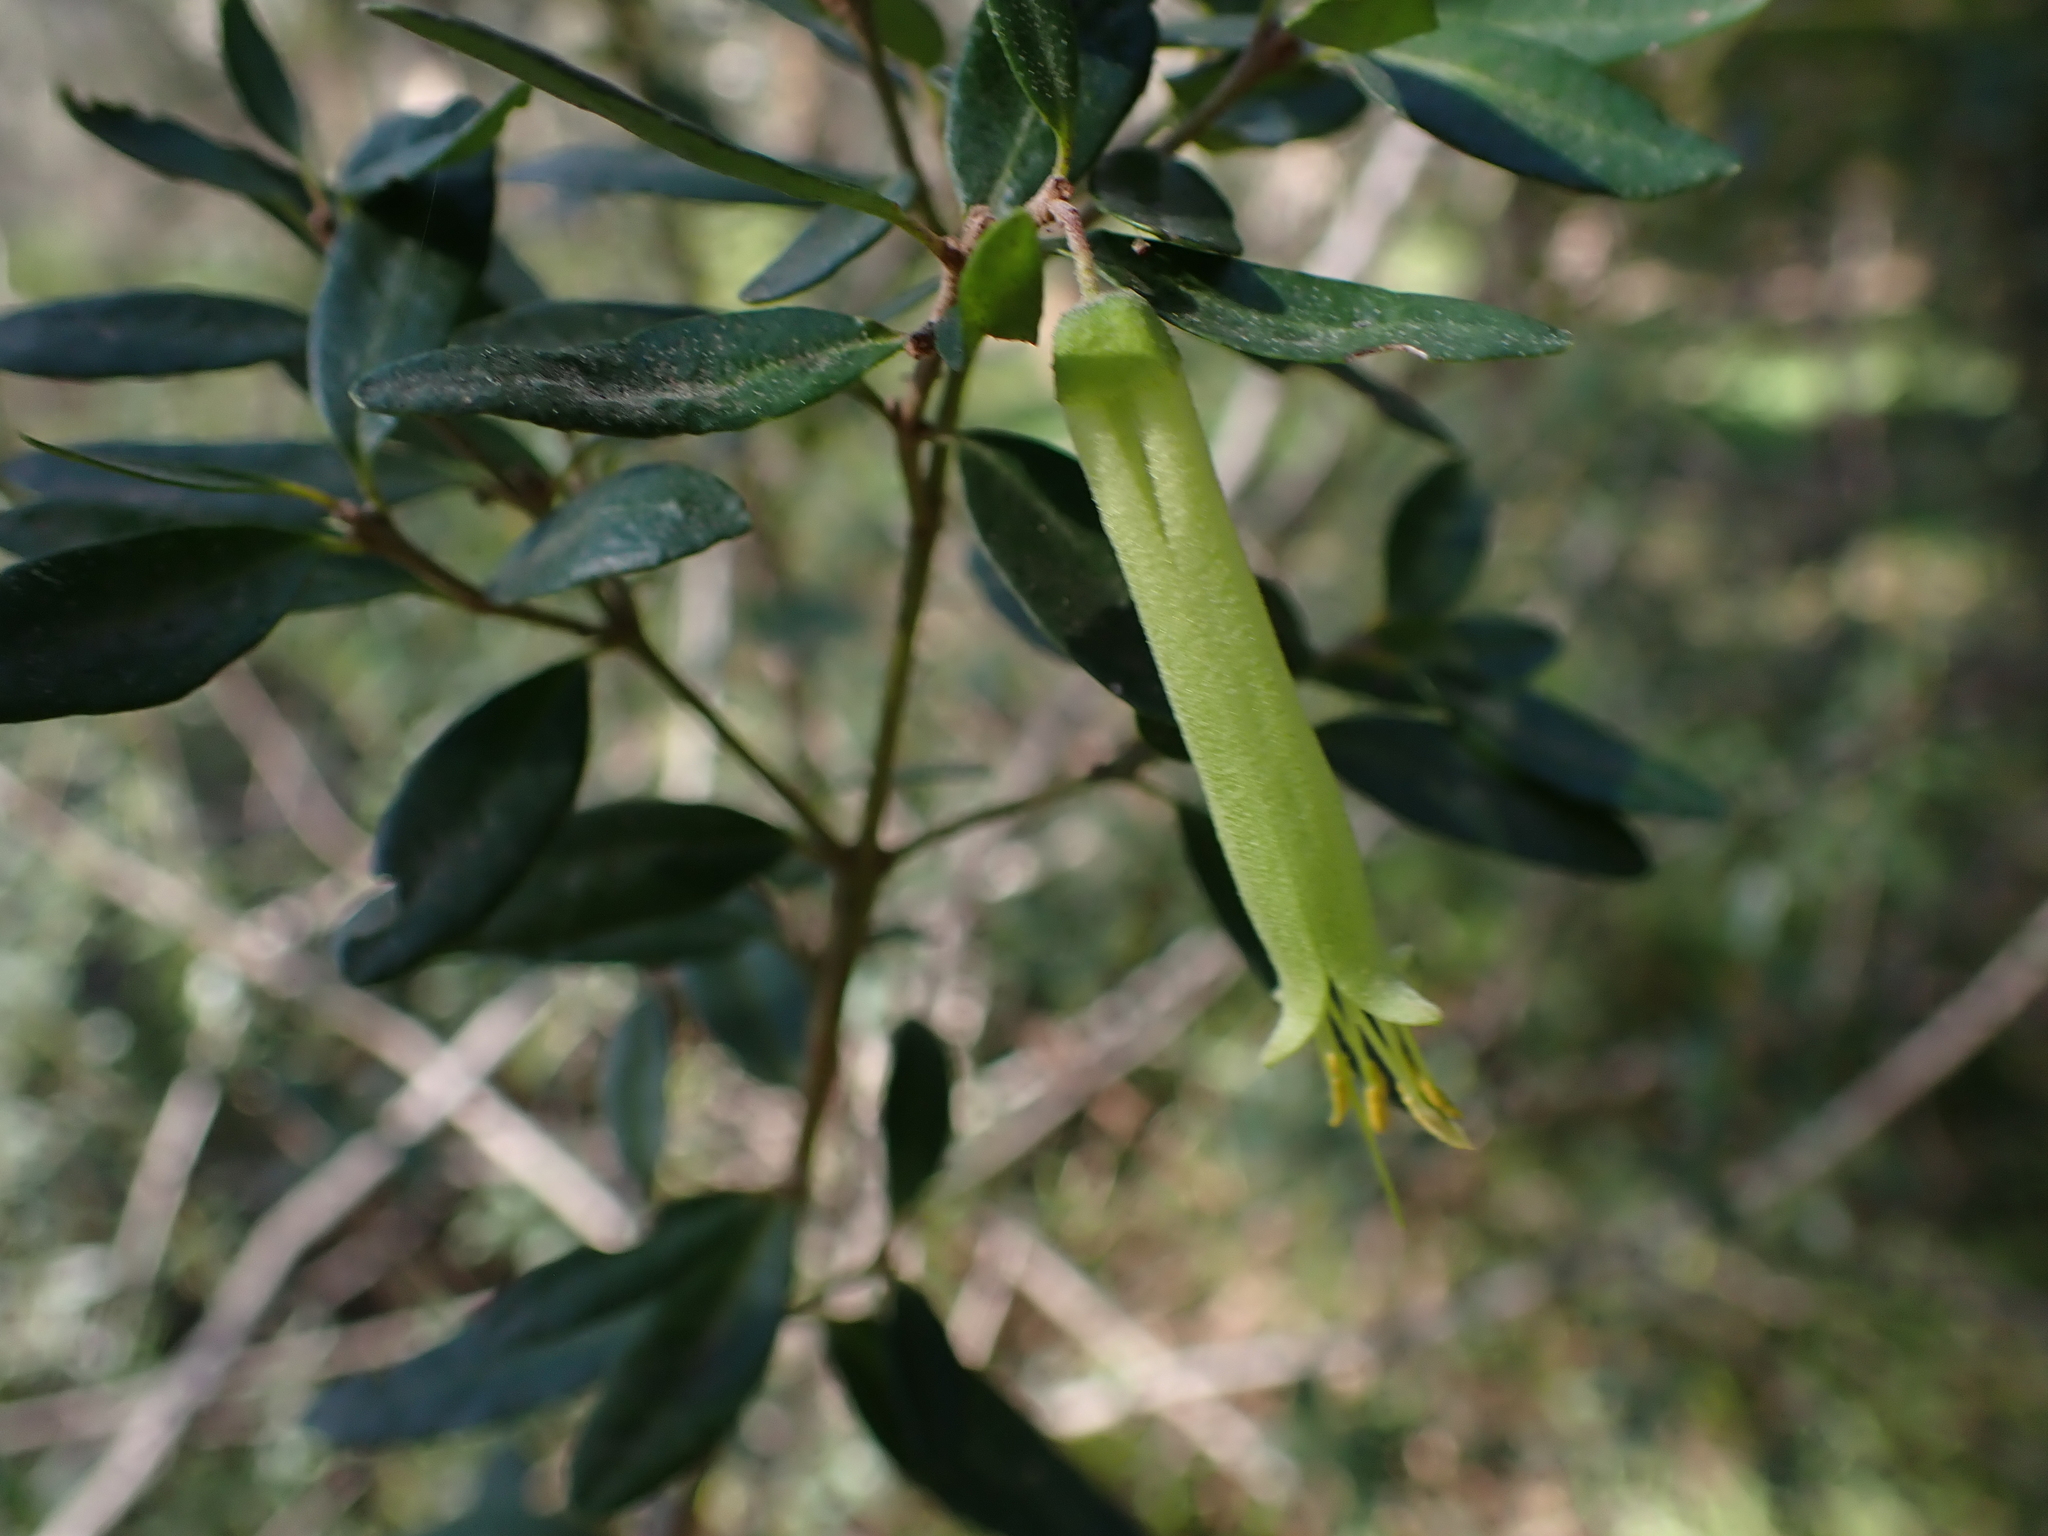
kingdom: Plantae
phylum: Tracheophyta
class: Magnoliopsida
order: Sapindales
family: Rutaceae
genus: Correa
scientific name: Correa glabra
